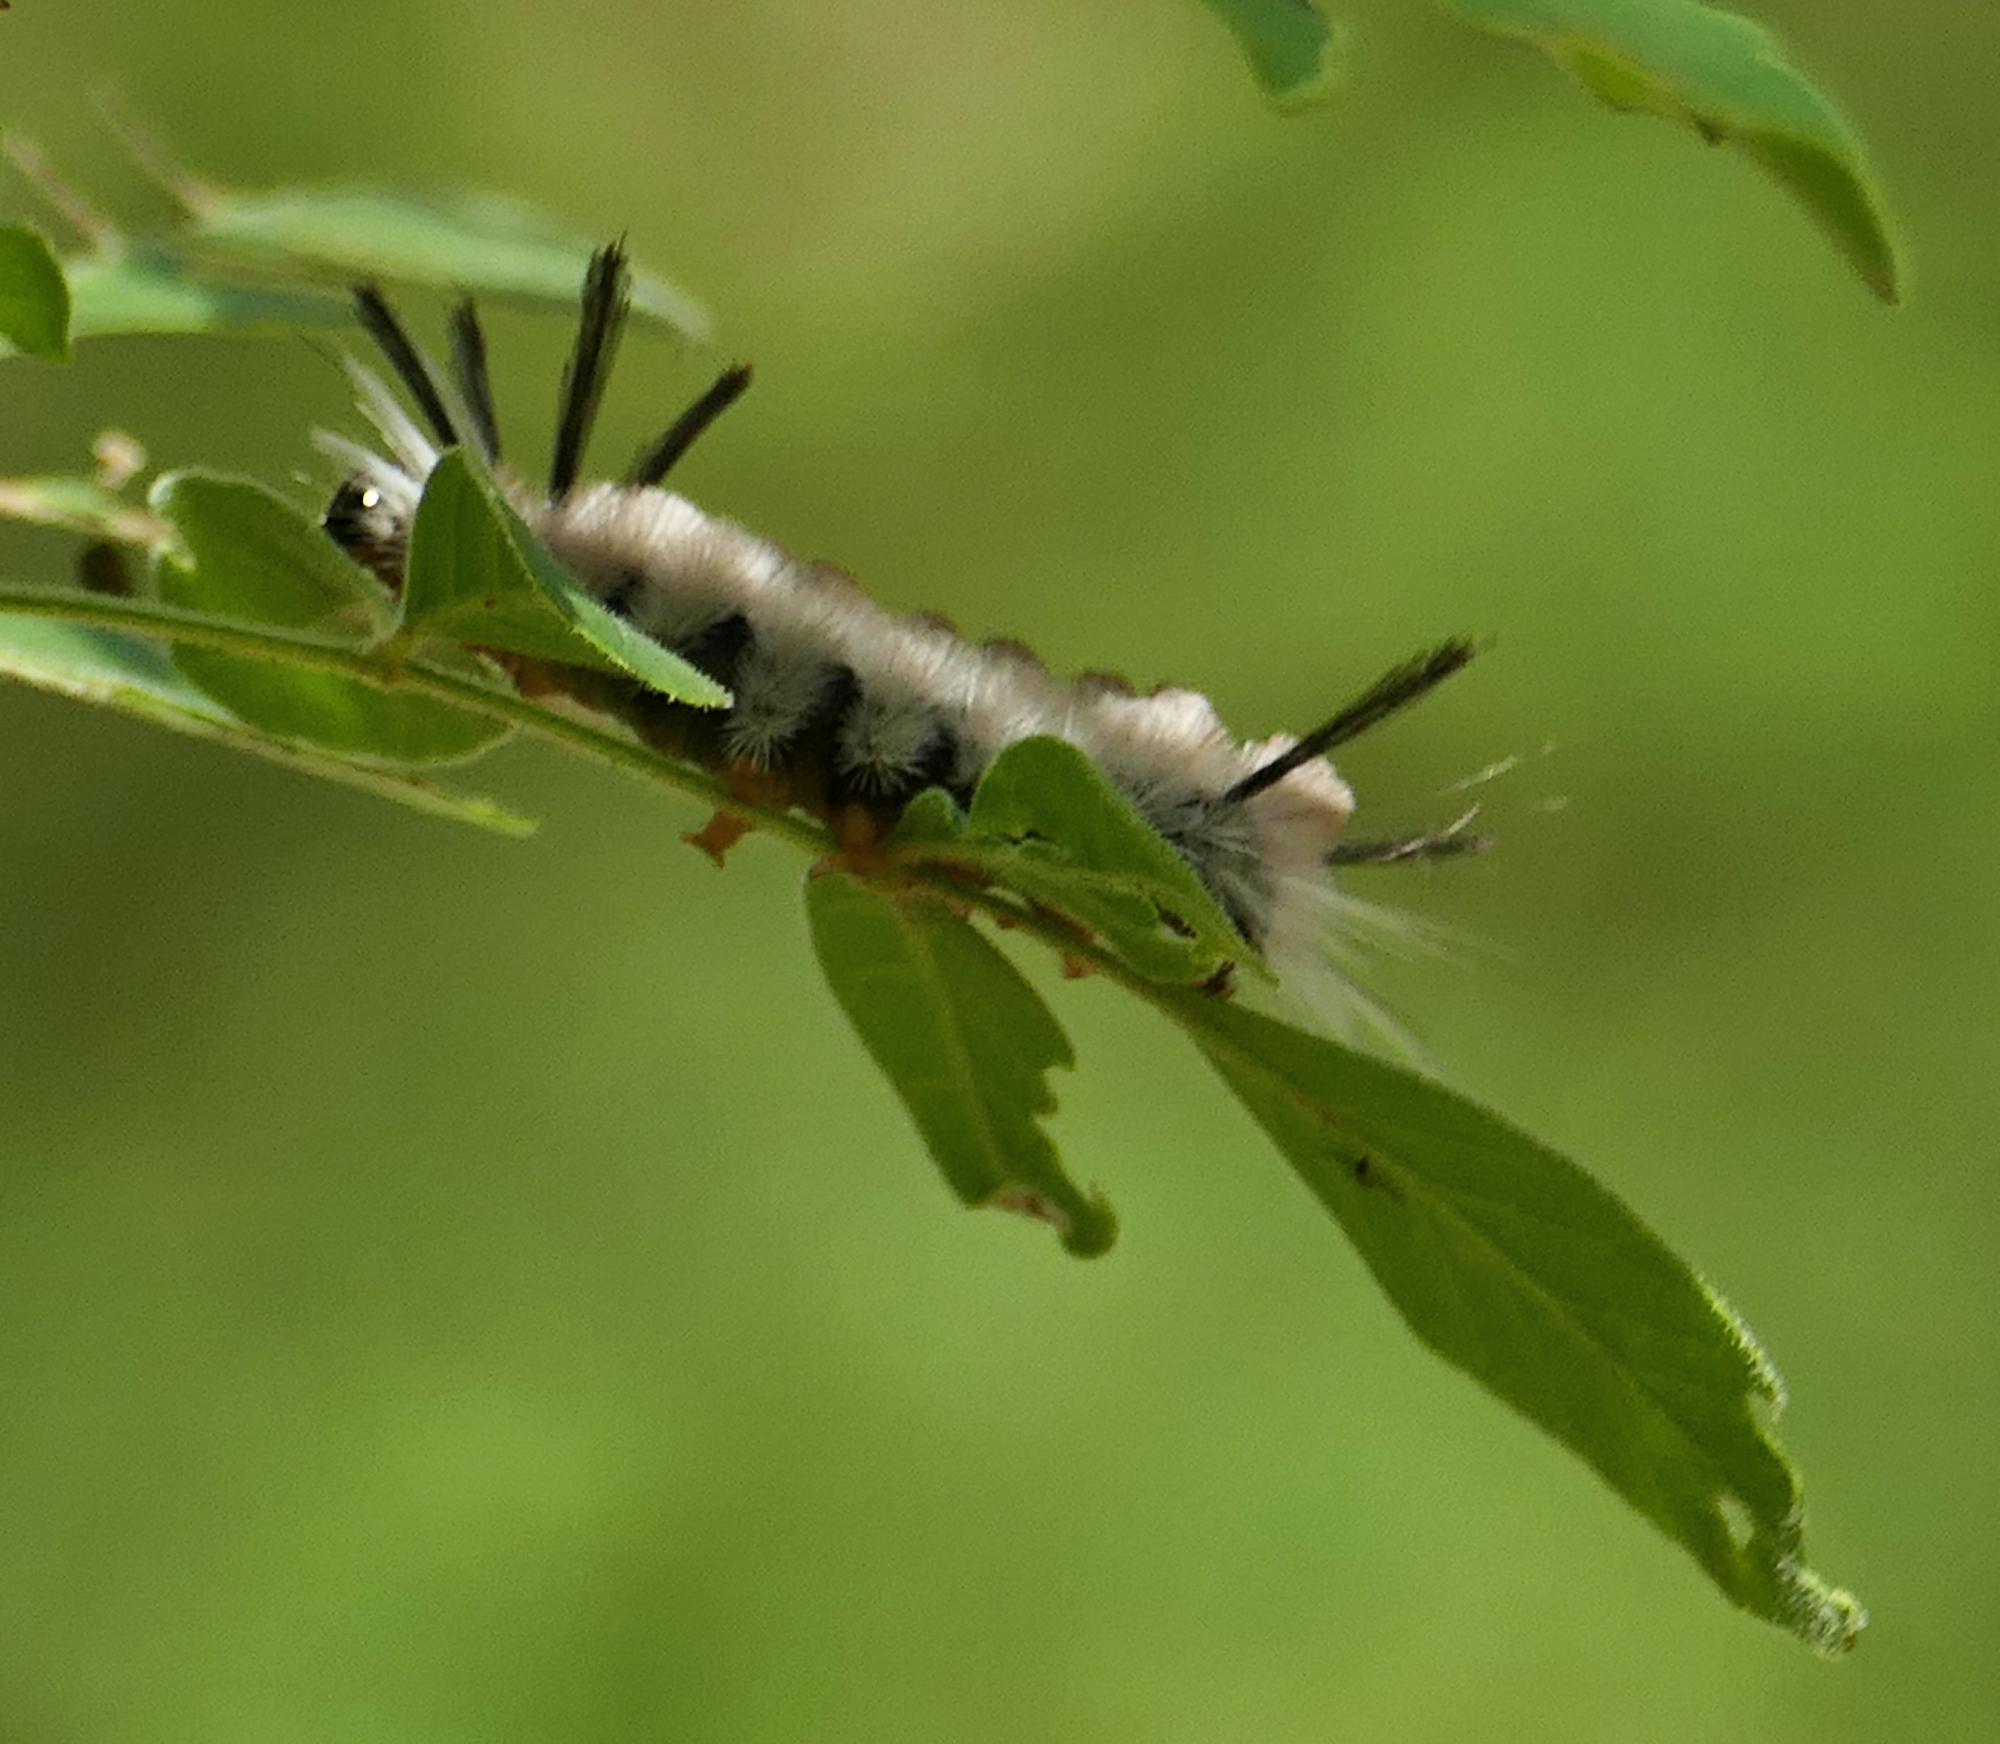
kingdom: Animalia
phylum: Arthropoda
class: Insecta
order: Lepidoptera
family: Erebidae
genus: Halysidota
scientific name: Halysidota tessellaris
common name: Banded tussock moth
